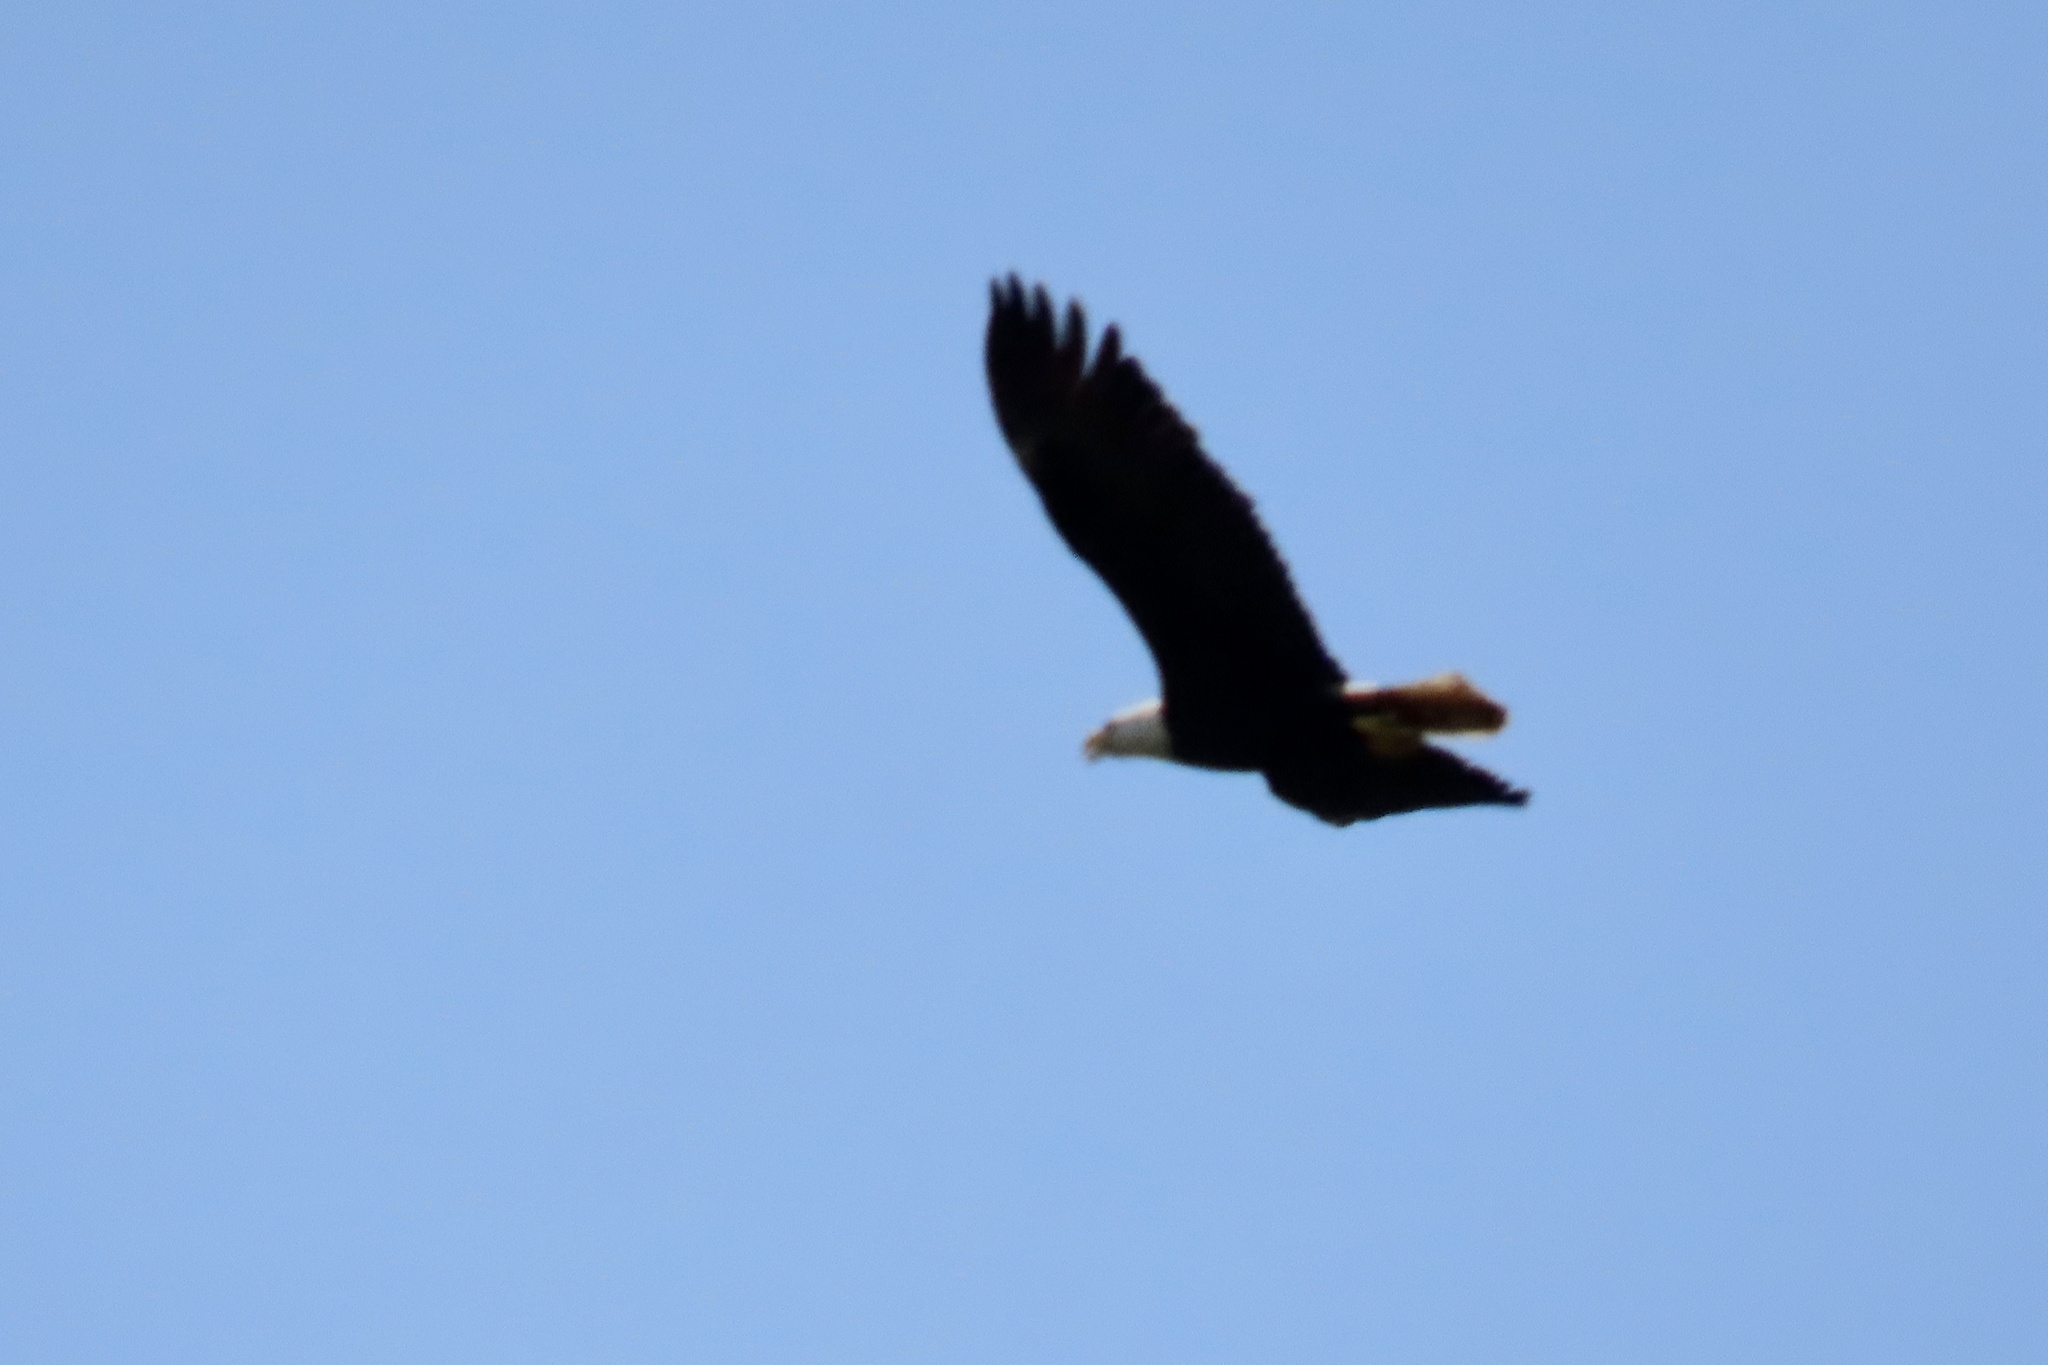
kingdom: Animalia
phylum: Chordata
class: Aves
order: Accipitriformes
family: Accipitridae
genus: Haliaeetus
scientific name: Haliaeetus leucocephalus
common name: Bald eagle
